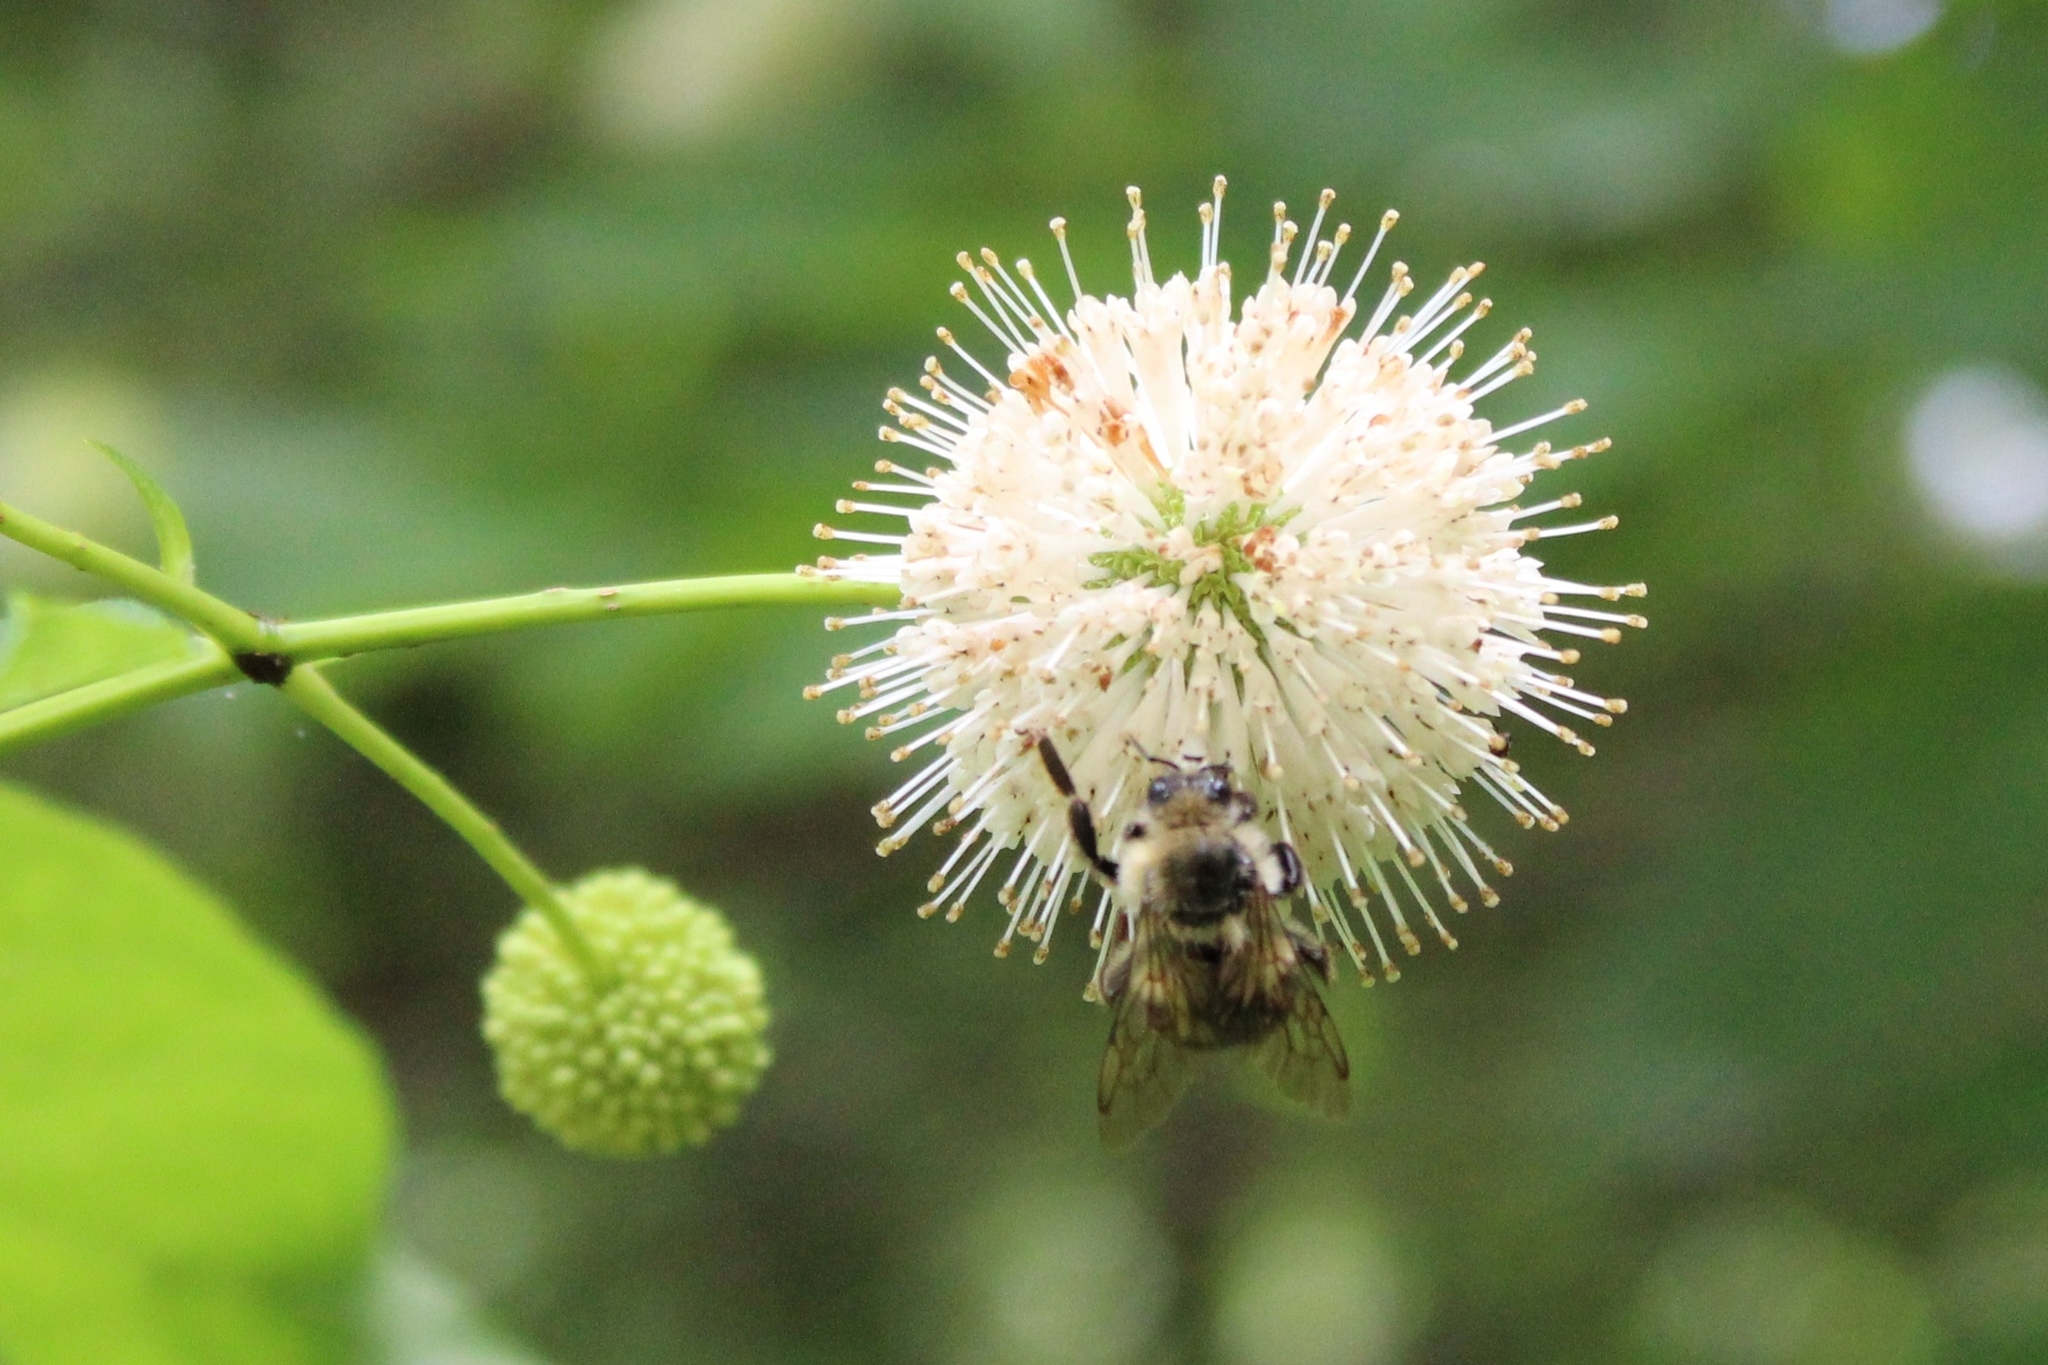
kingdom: Animalia
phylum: Arthropoda
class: Insecta
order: Hymenoptera
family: Apidae
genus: Bombus
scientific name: Bombus bimaculatus
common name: Two-spotted bumble bee
